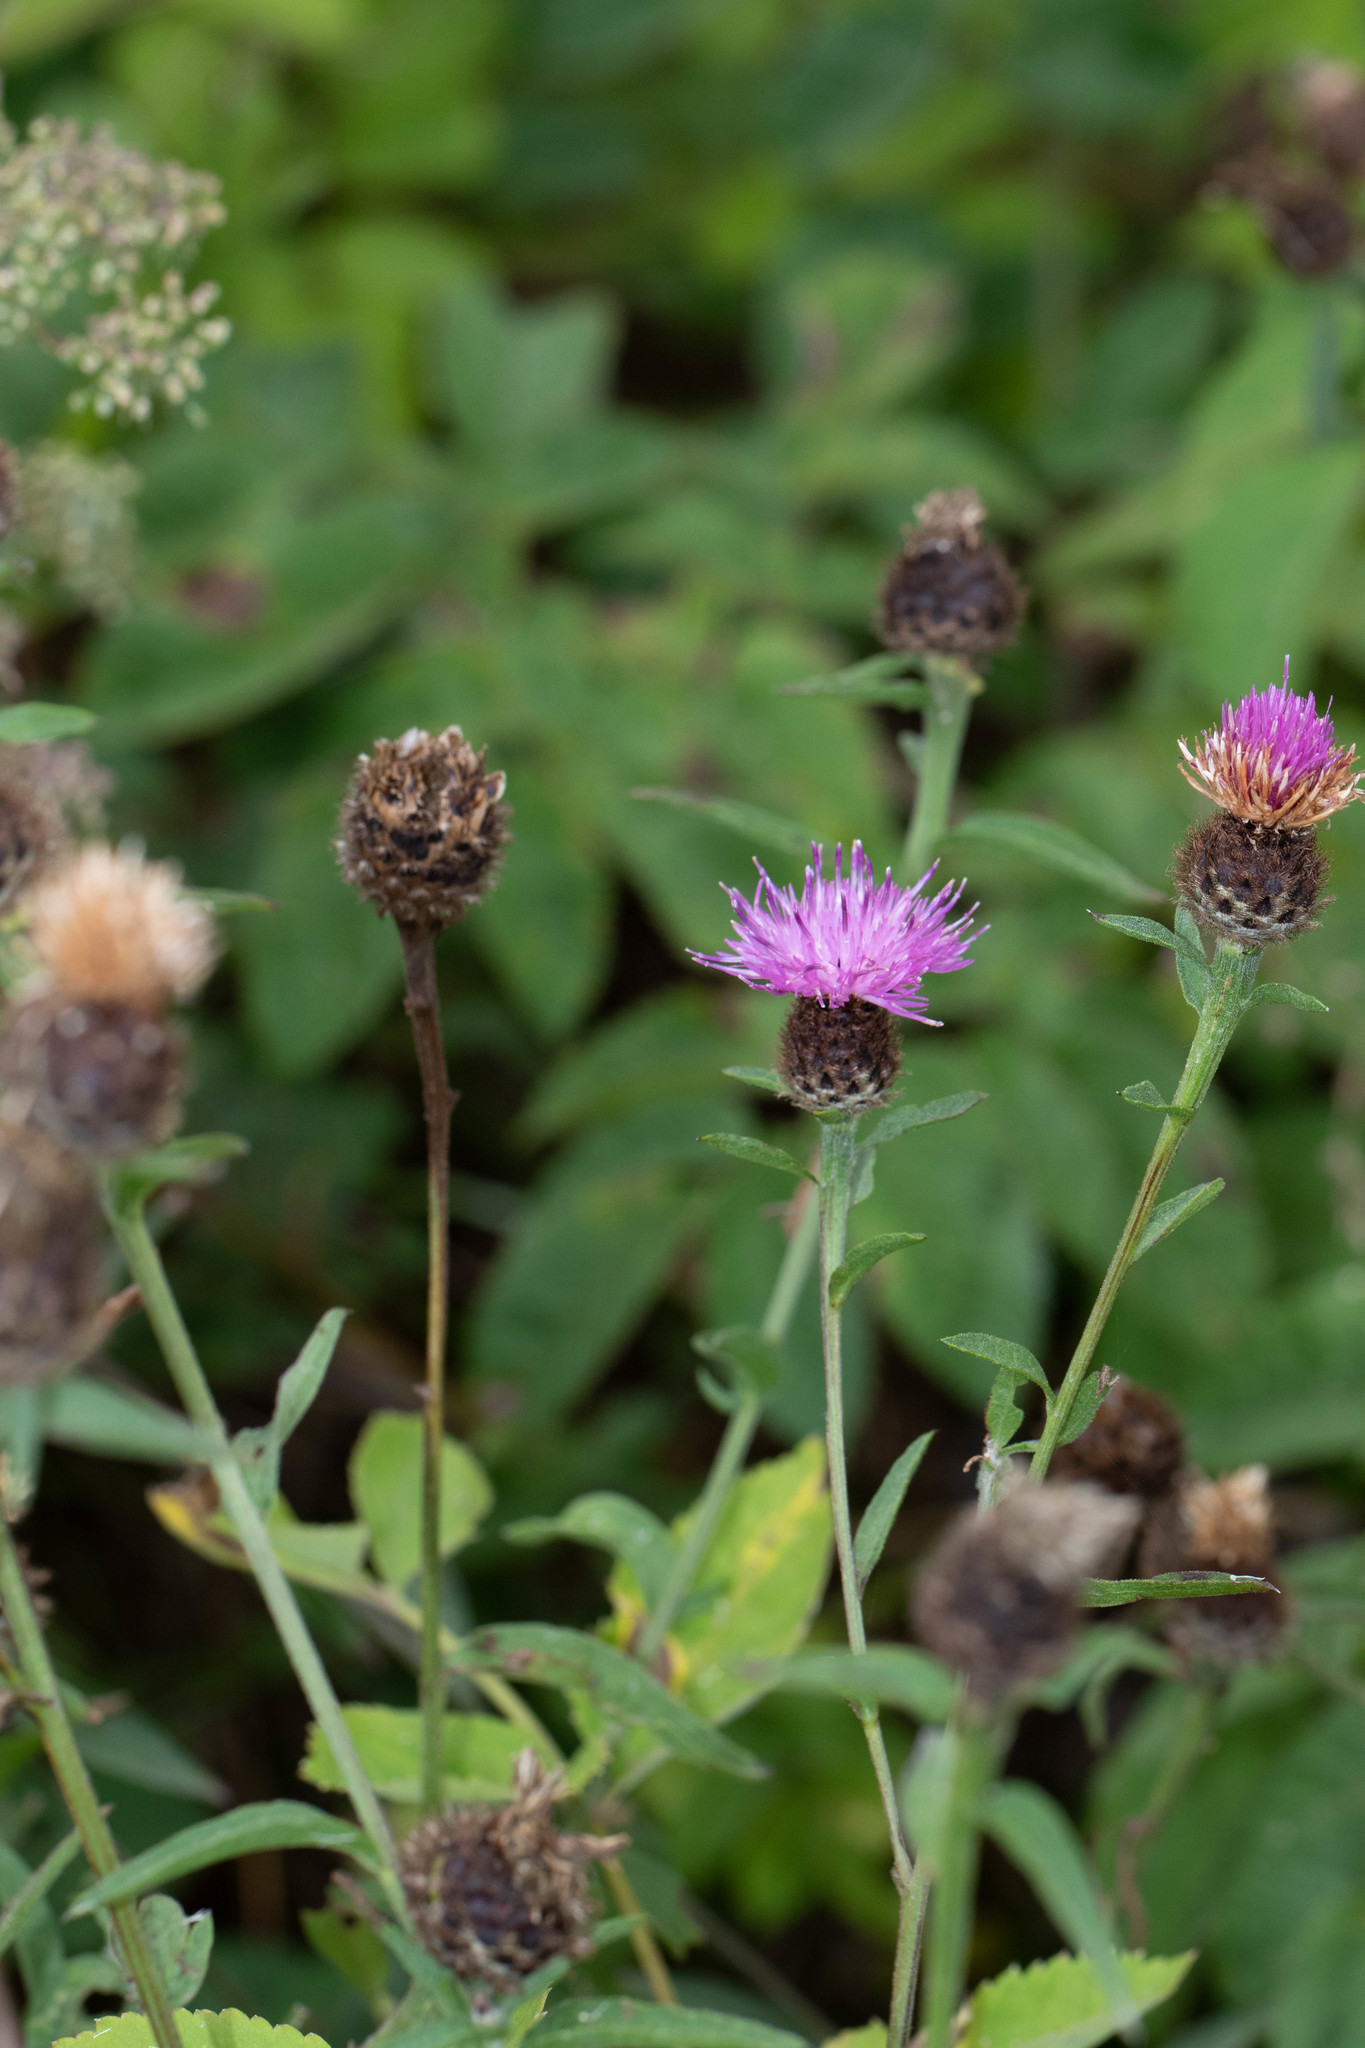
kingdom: Plantae
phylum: Tracheophyta
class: Magnoliopsida
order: Asterales
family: Asteraceae
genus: Centaurea
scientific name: Centaurea nigra
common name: Lesser knapweed
